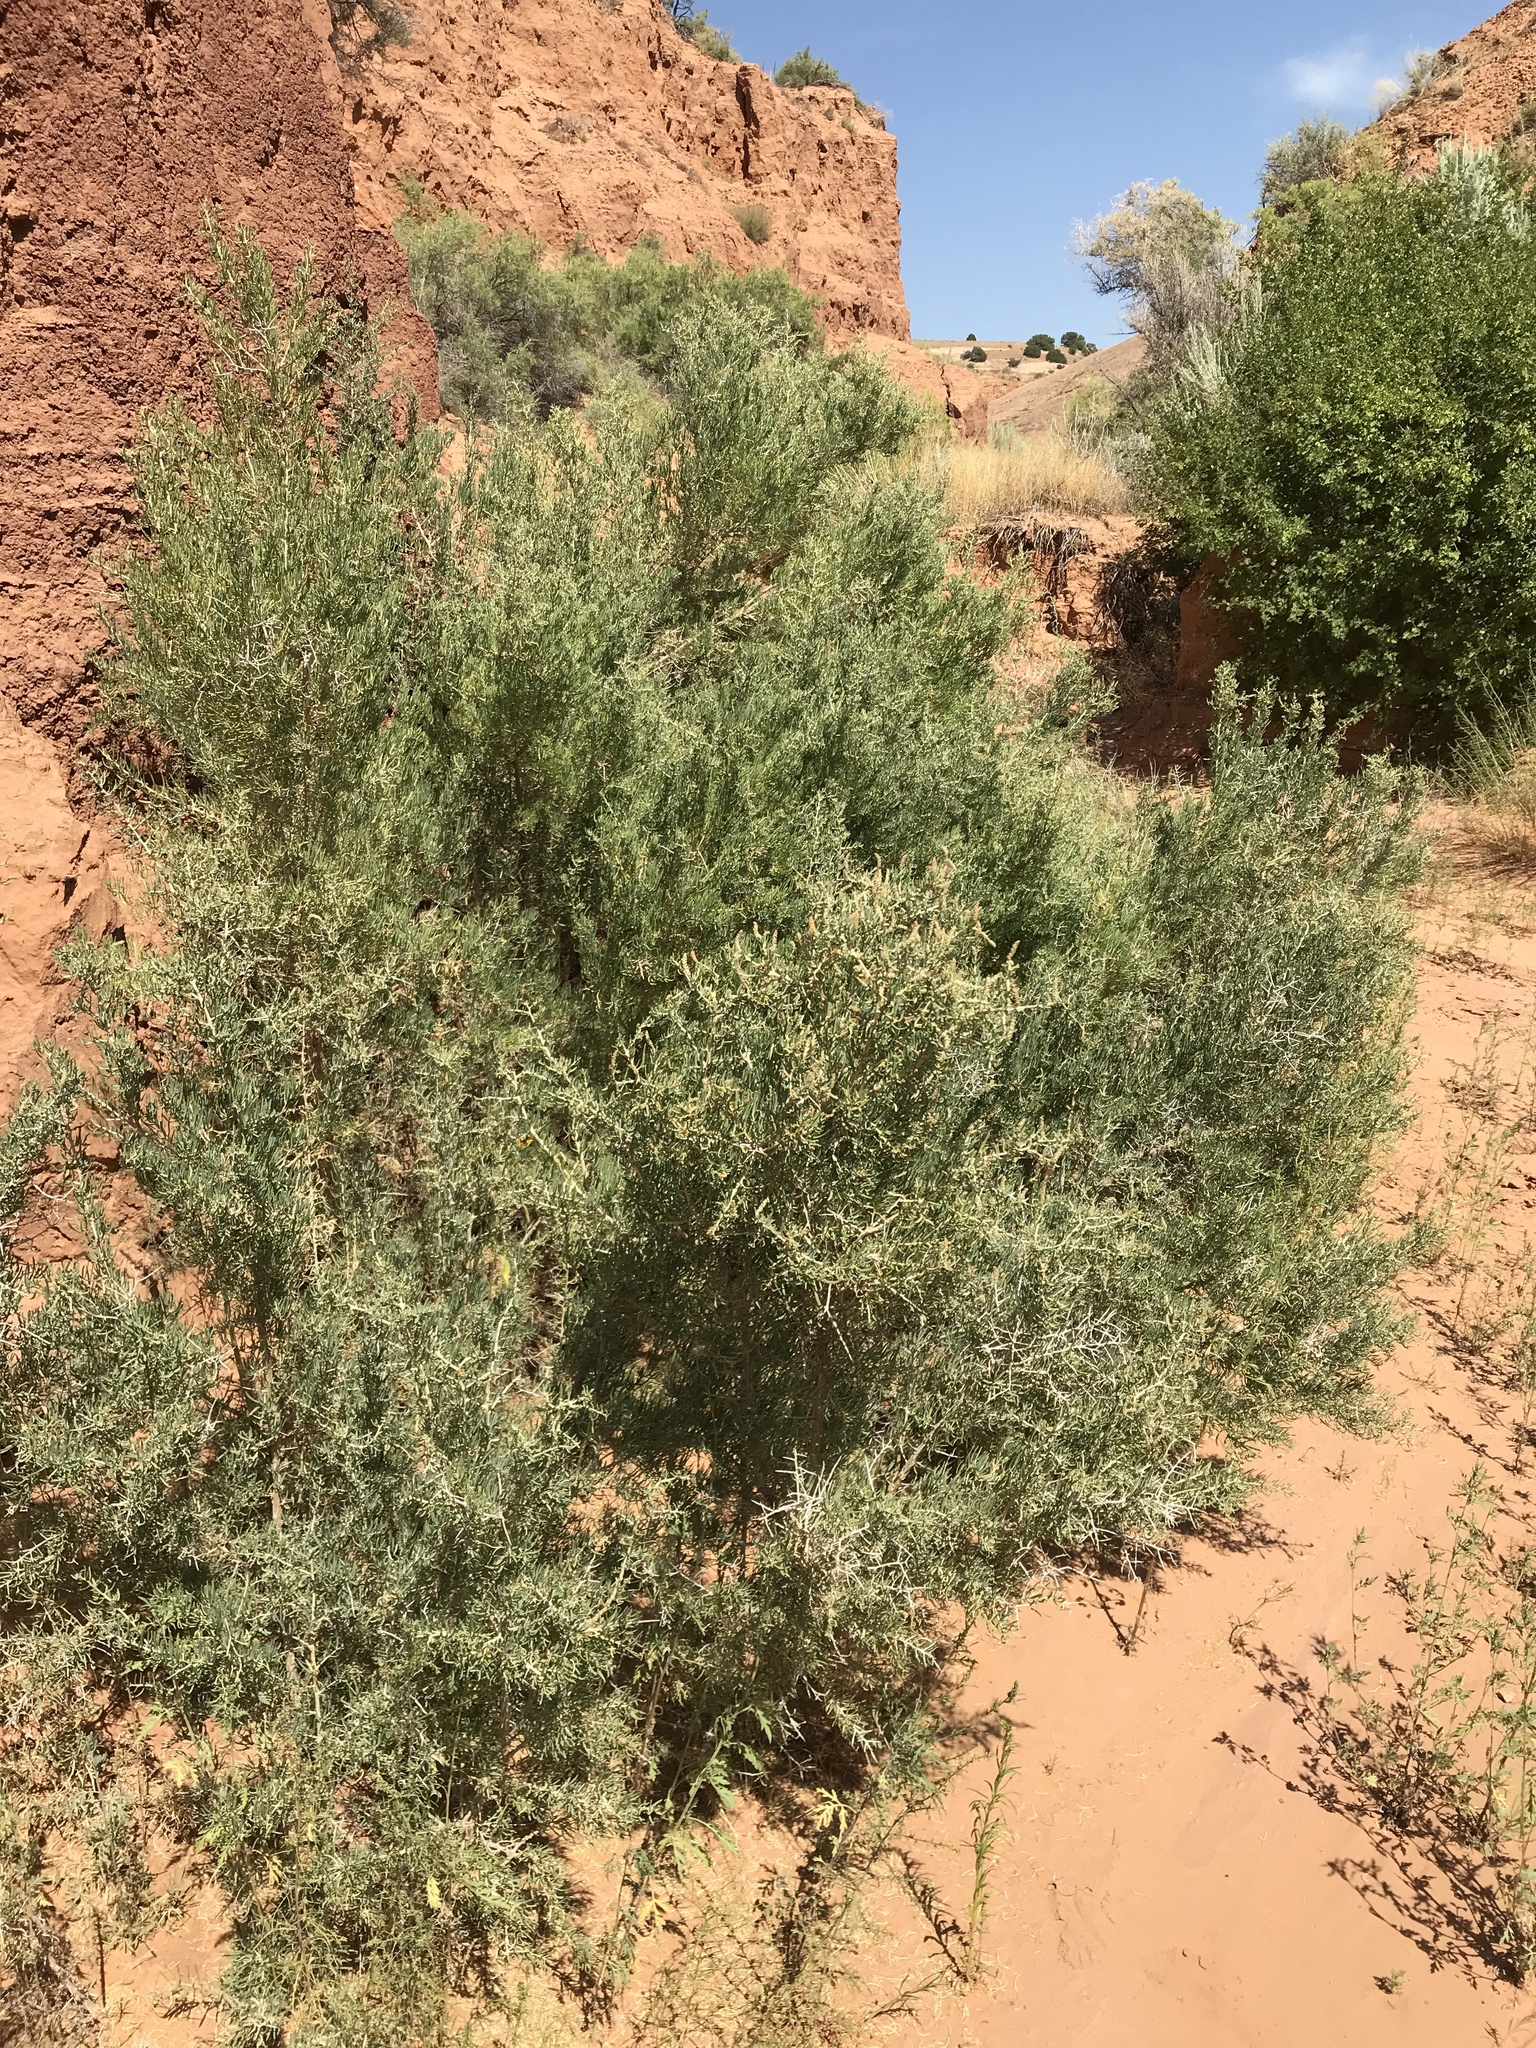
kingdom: Plantae
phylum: Tracheophyta
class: Magnoliopsida
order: Caryophyllales
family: Sarcobataceae
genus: Sarcobatus
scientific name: Sarcobatus vermiculatus
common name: Greasewood
